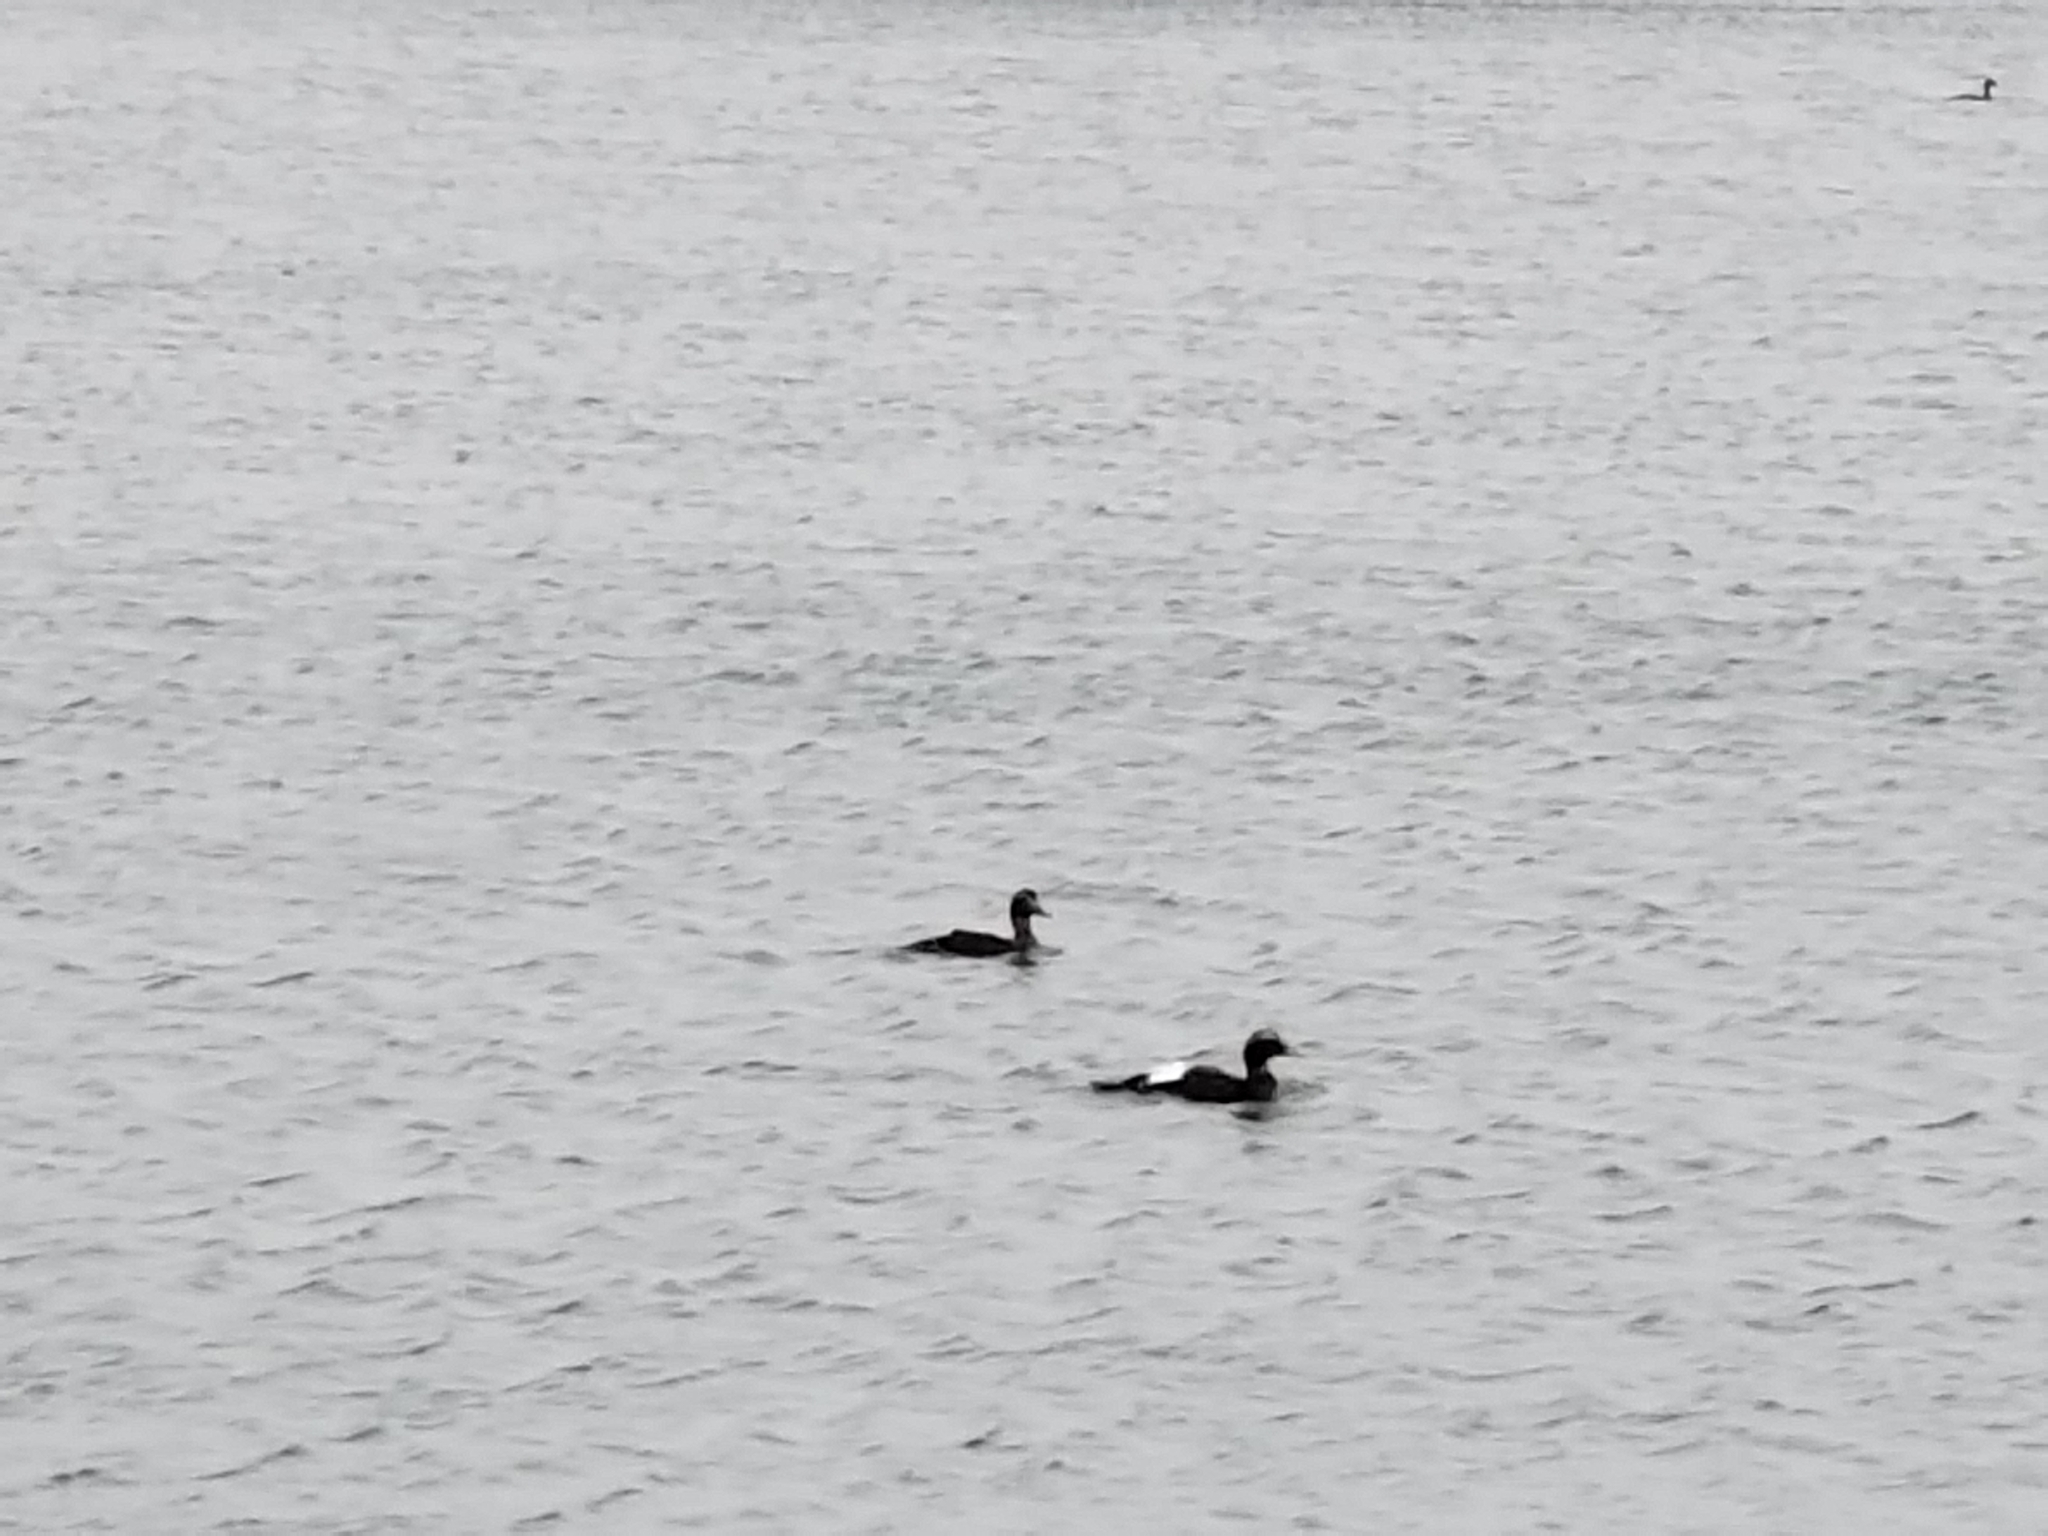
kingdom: Animalia
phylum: Chordata
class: Aves
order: Anseriformes
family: Anatidae
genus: Somateria
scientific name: Somateria mollissima
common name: Common eider
